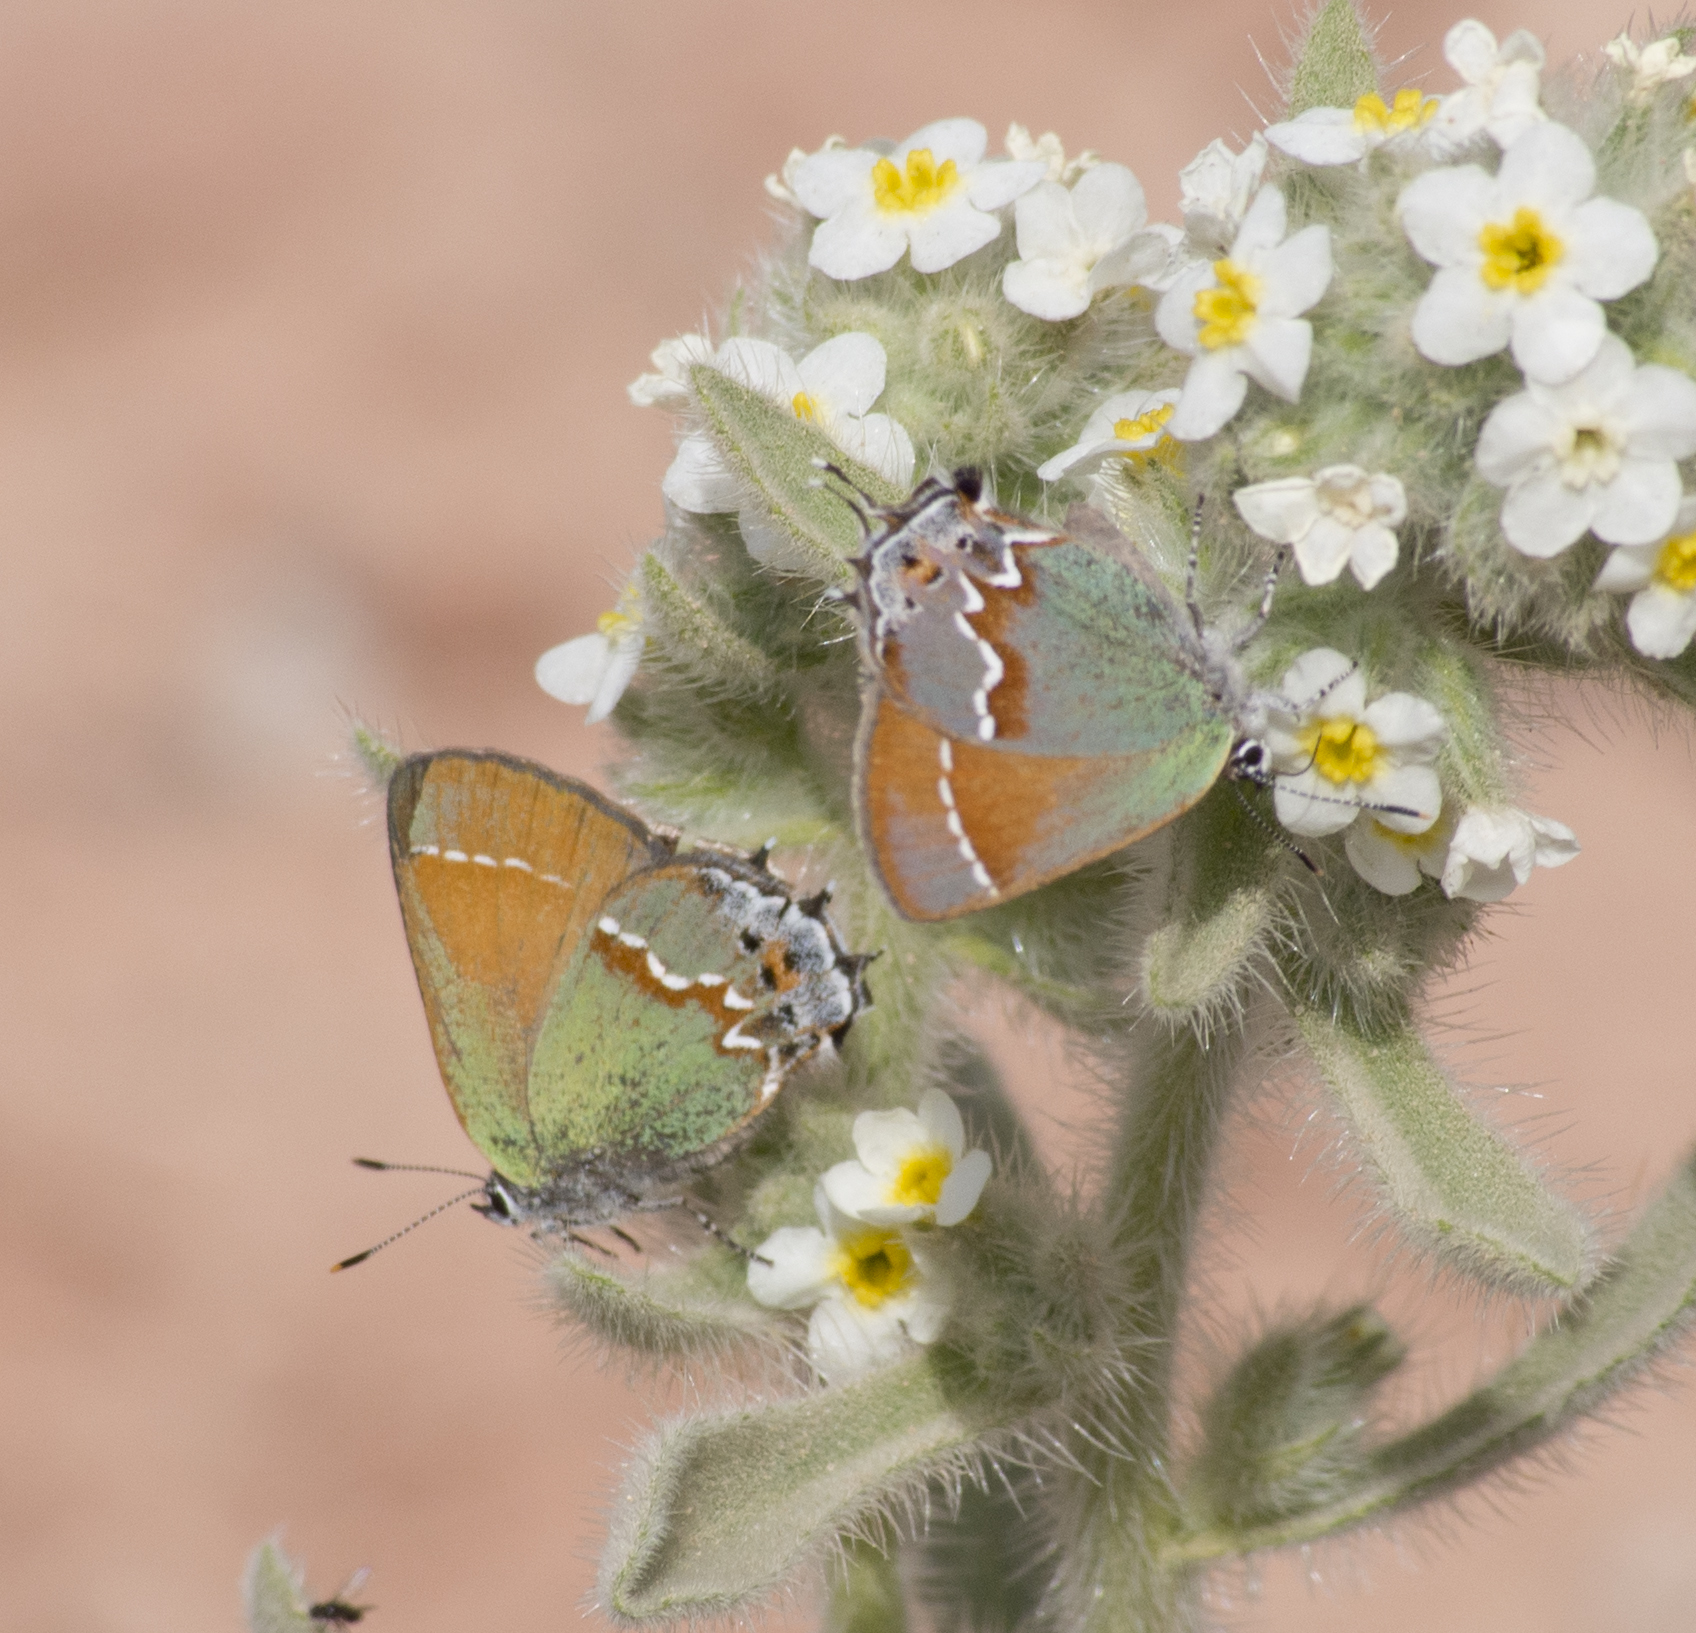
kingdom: Animalia
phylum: Arthropoda
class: Insecta
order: Lepidoptera
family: Lycaenidae
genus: Mitoura
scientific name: Mitoura siva
